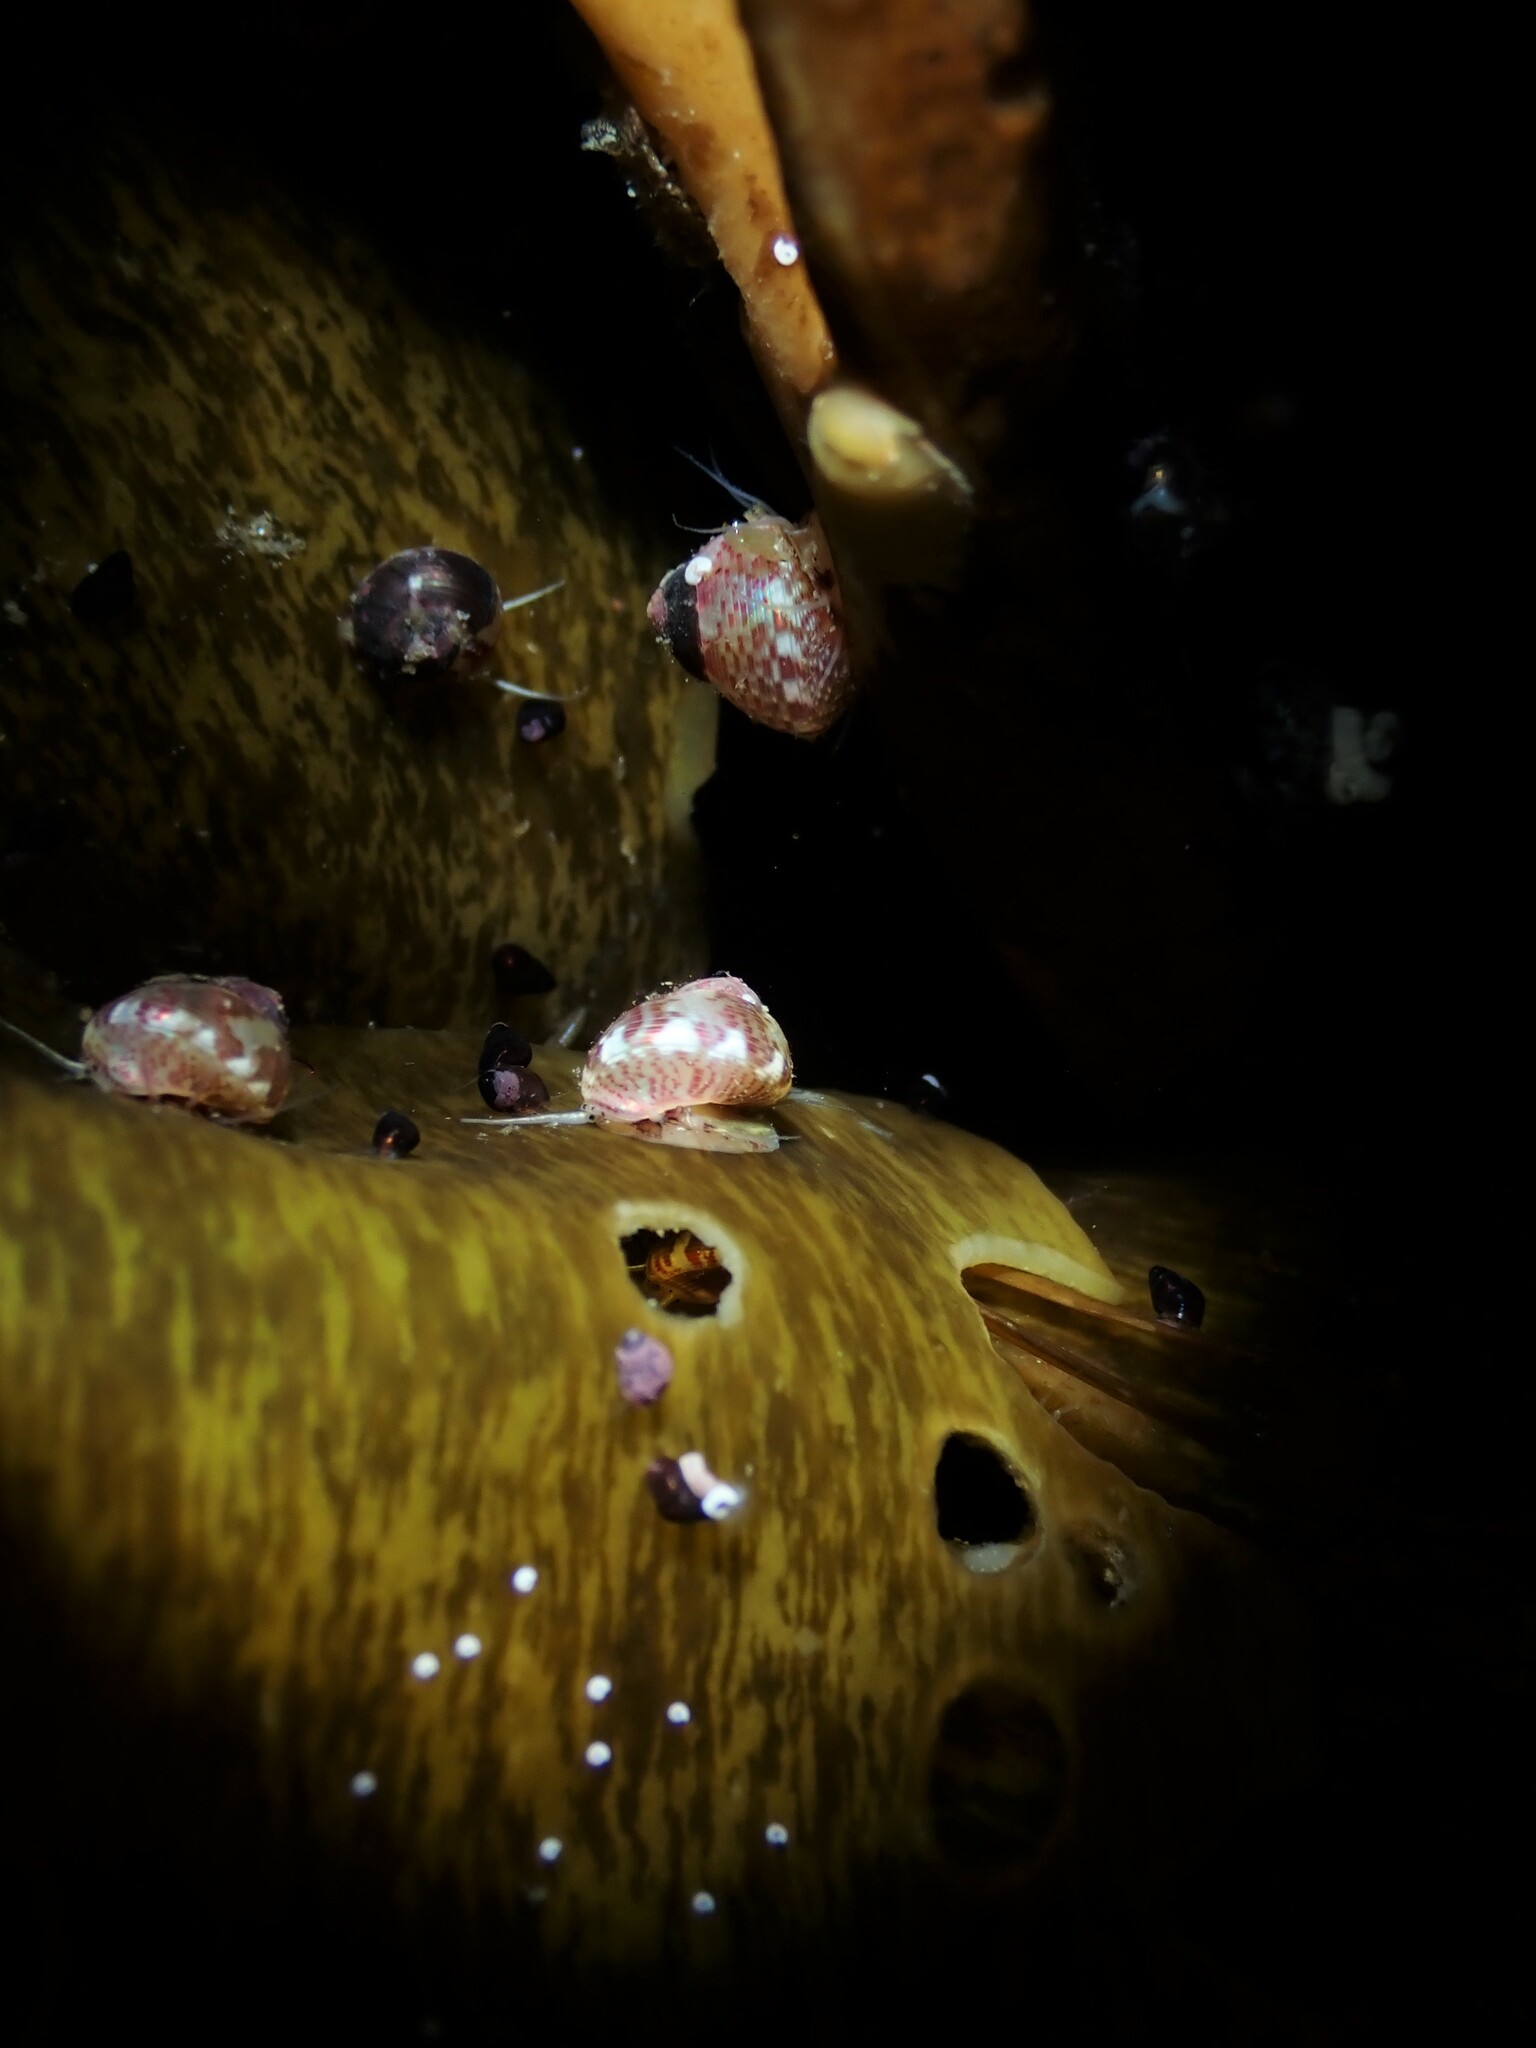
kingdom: Animalia
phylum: Mollusca
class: Gastropoda
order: Trochida
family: Trochidae
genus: Micrelenchus
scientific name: Micrelenchus sanguineus
